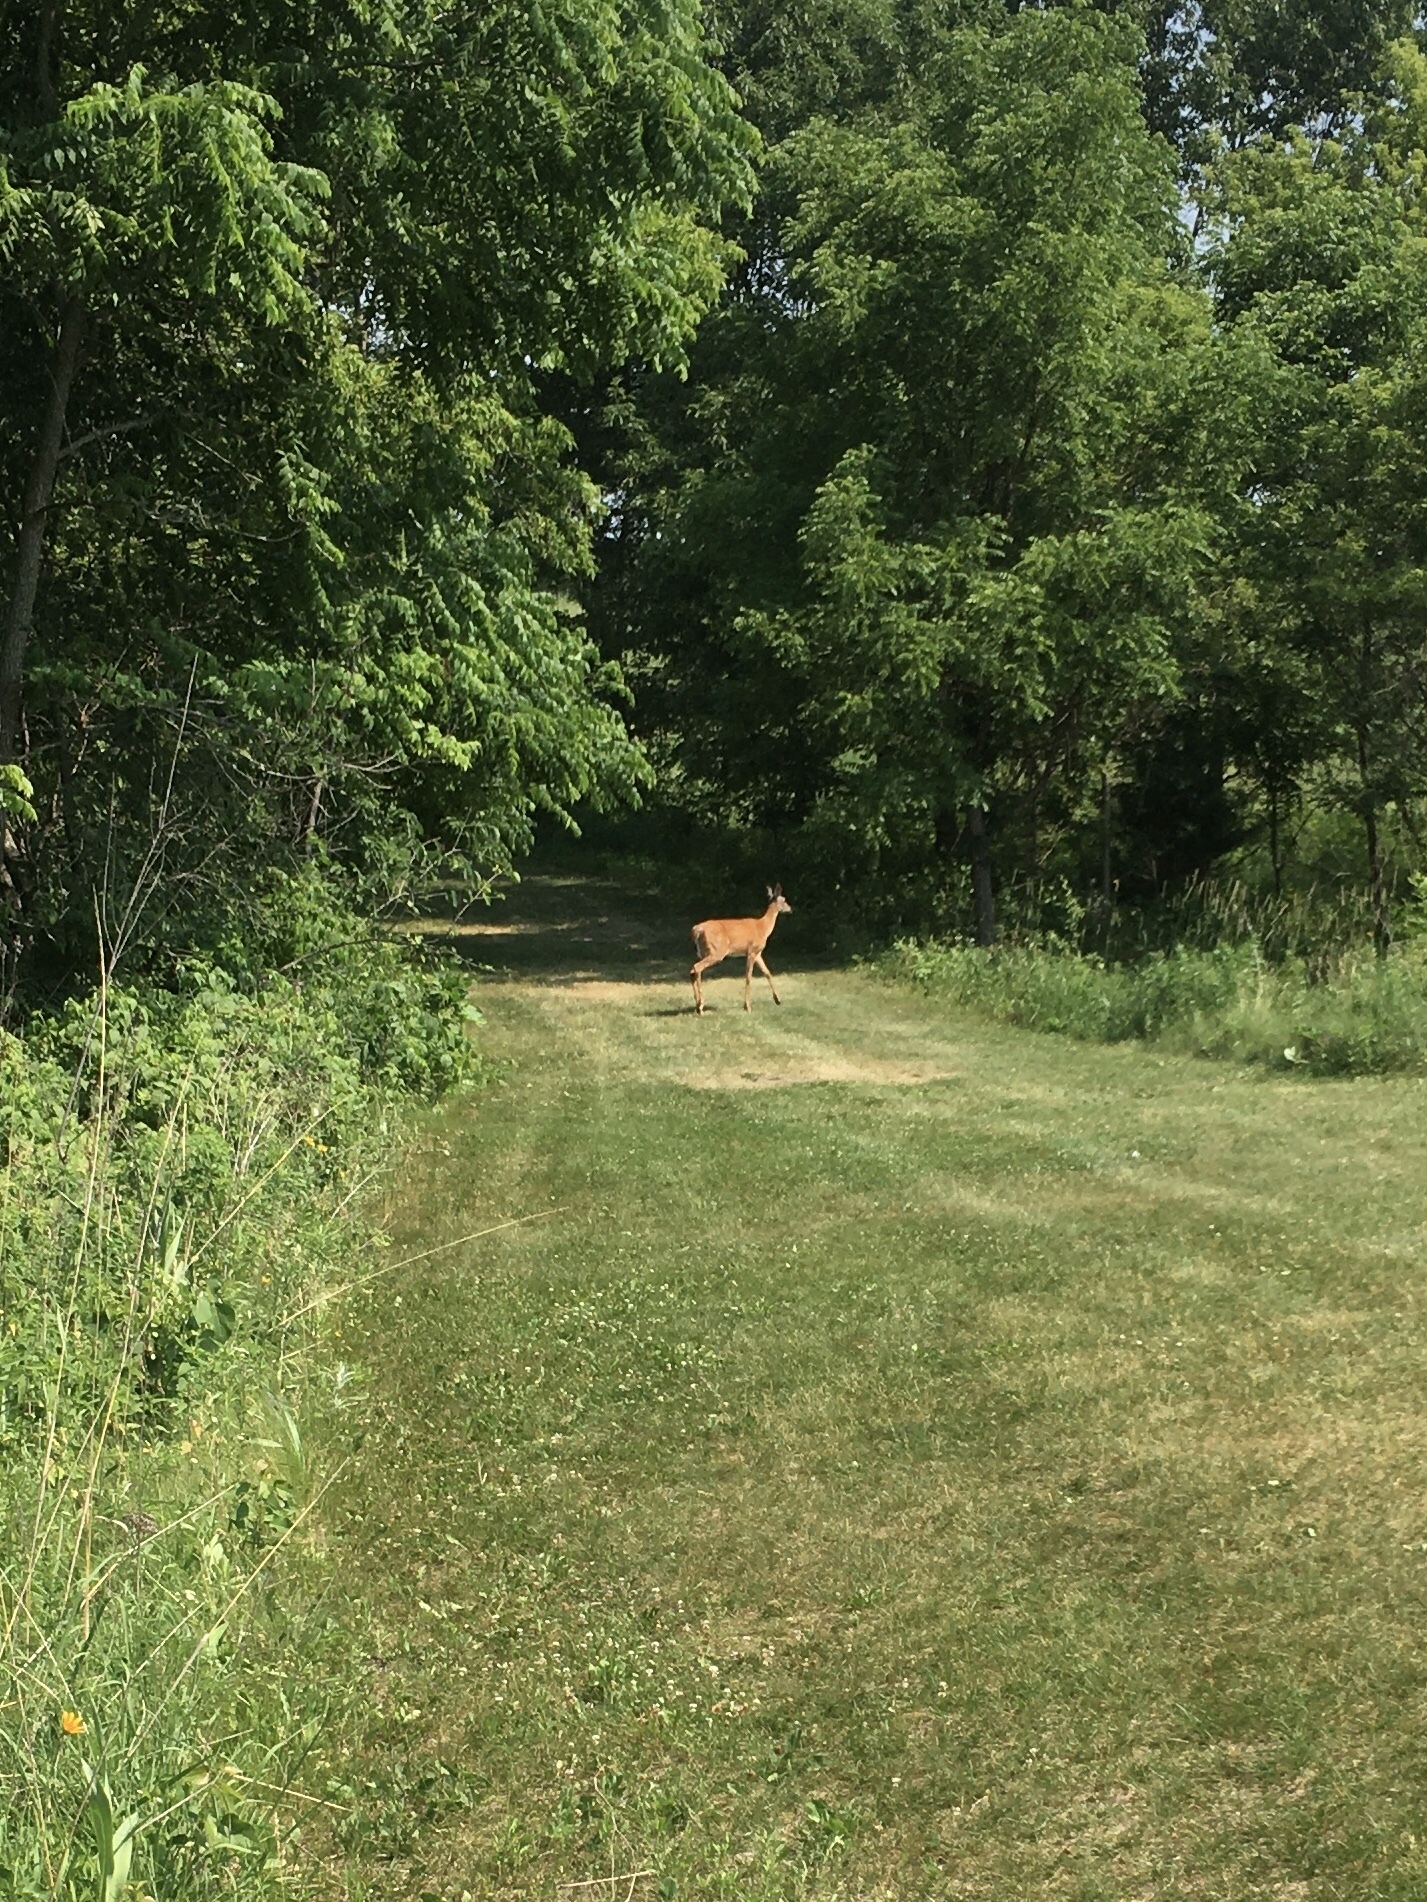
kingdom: Animalia
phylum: Chordata
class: Mammalia
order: Artiodactyla
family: Cervidae
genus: Odocoileus
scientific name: Odocoileus virginianus
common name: White-tailed deer
